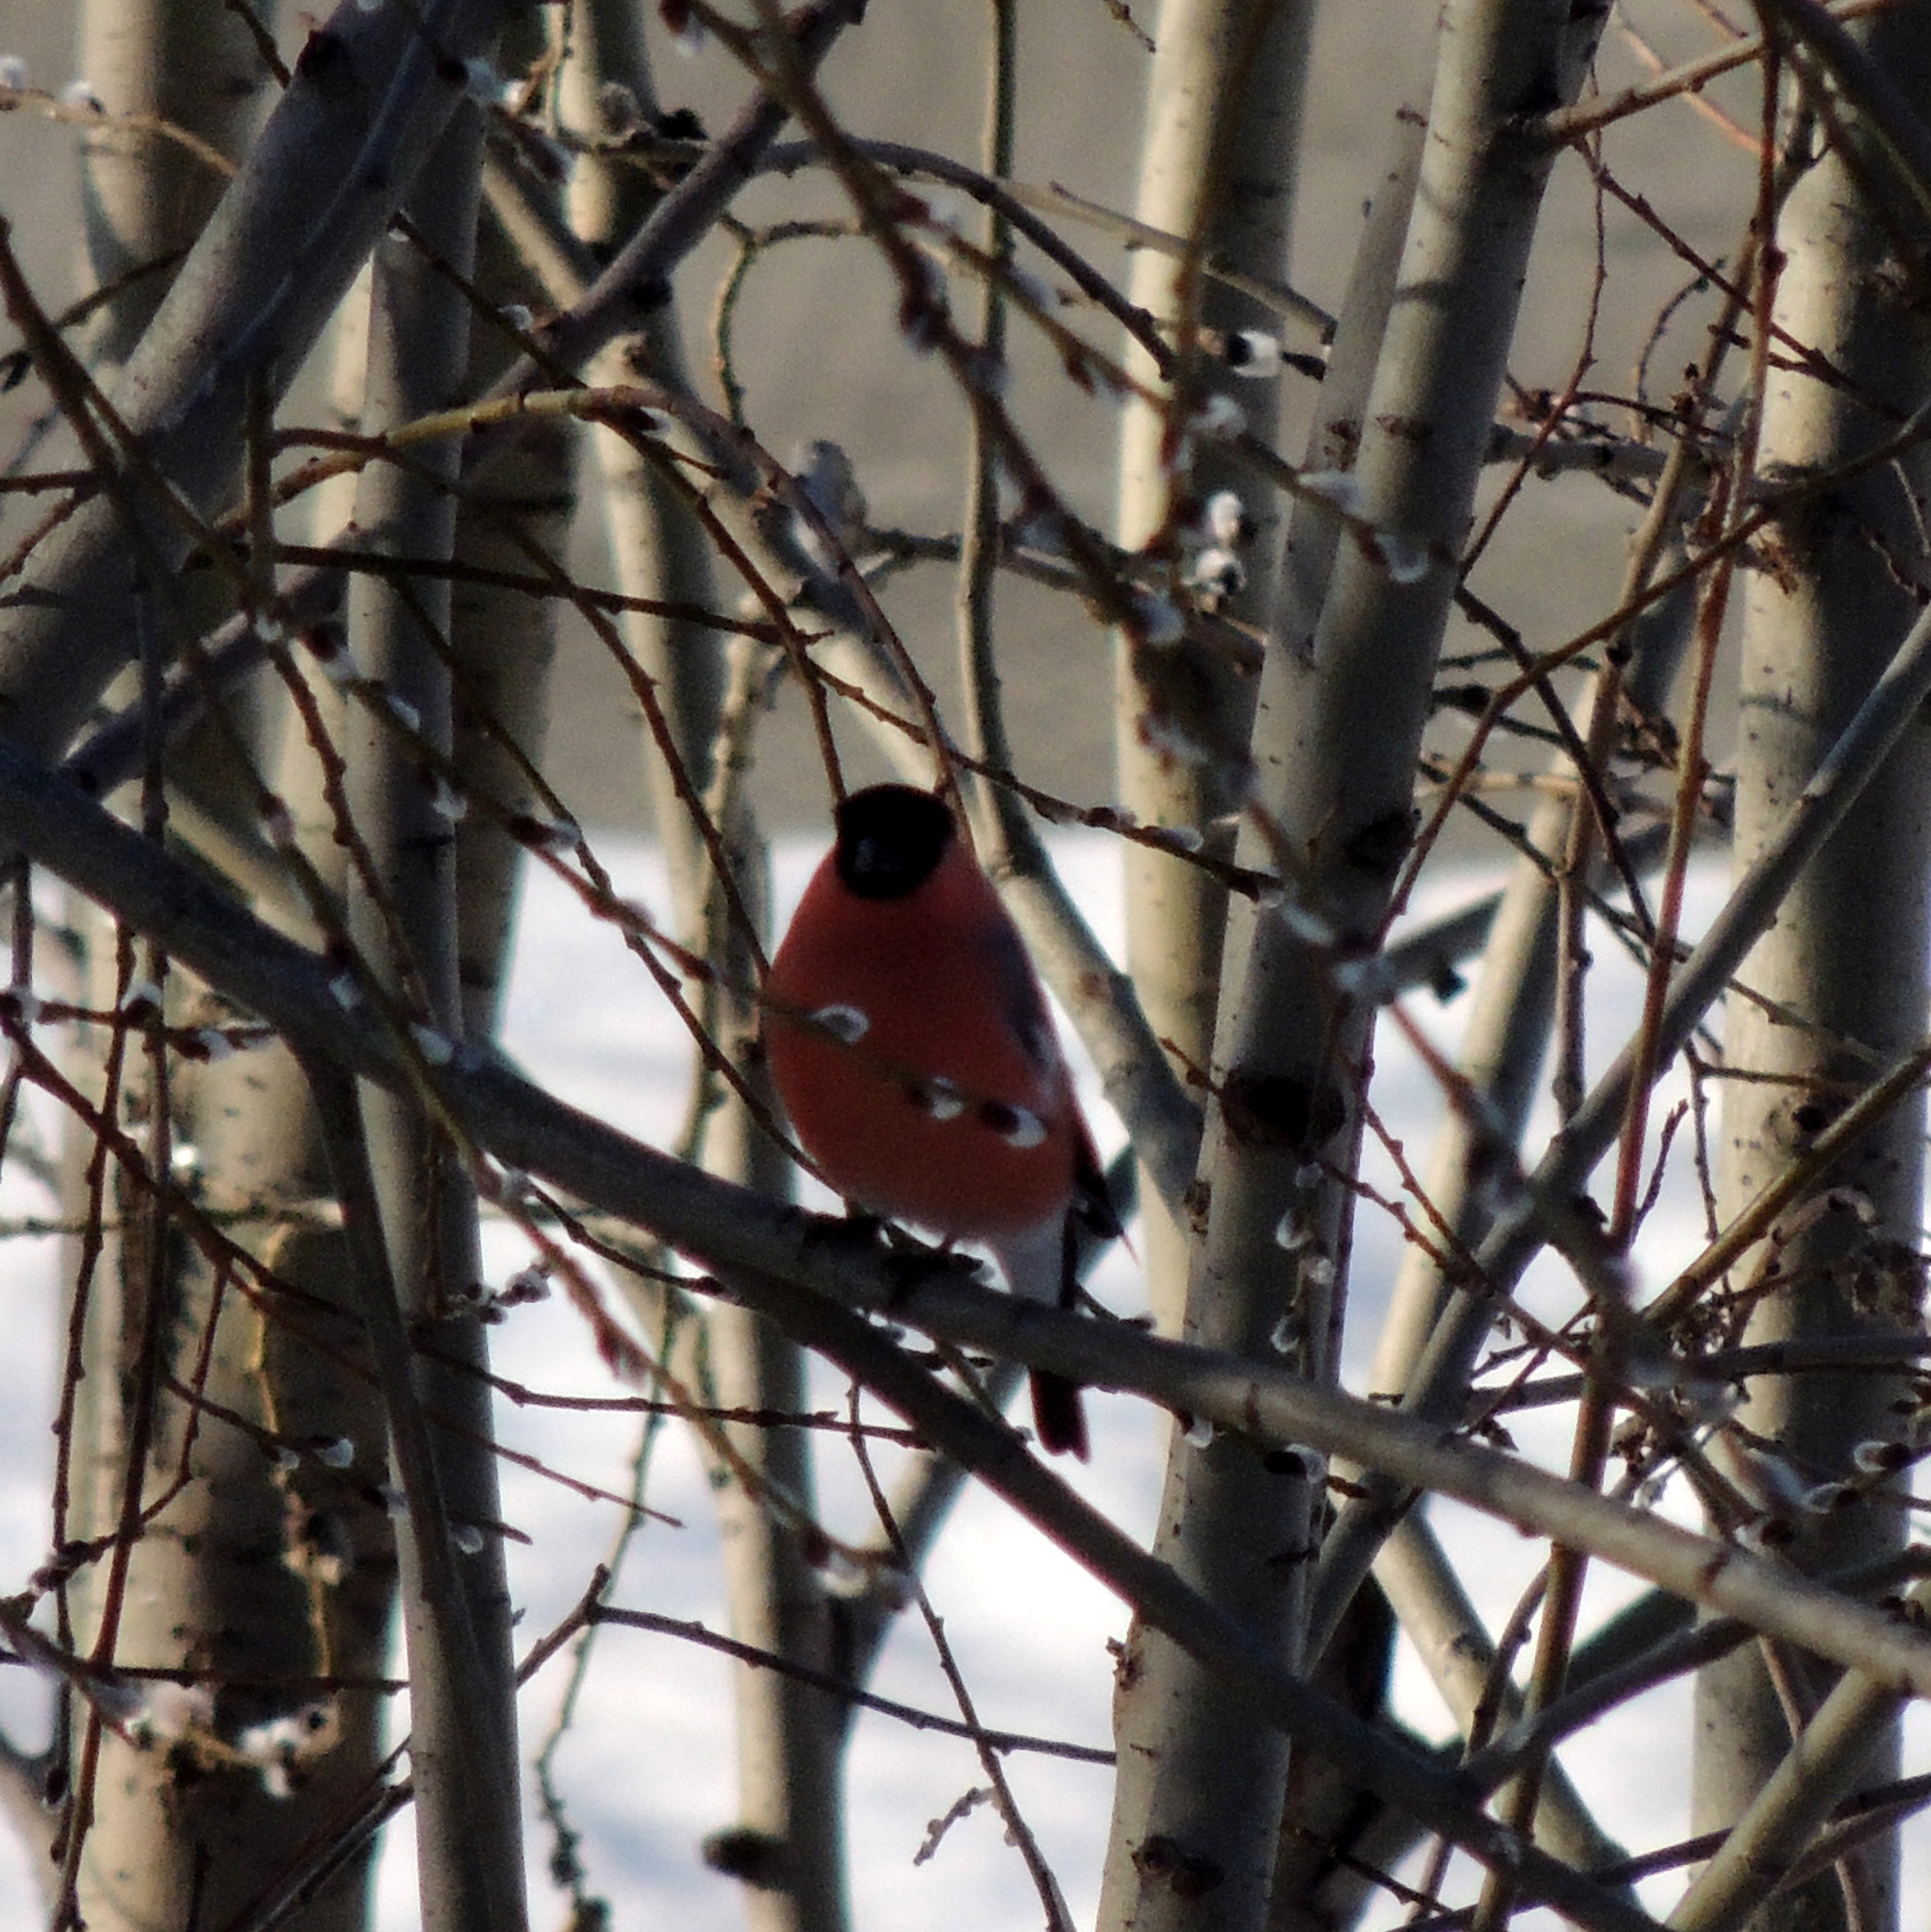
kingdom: Animalia
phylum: Chordata
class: Aves
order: Passeriformes
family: Fringillidae
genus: Pyrrhula
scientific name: Pyrrhula pyrrhula
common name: Eurasian bullfinch
